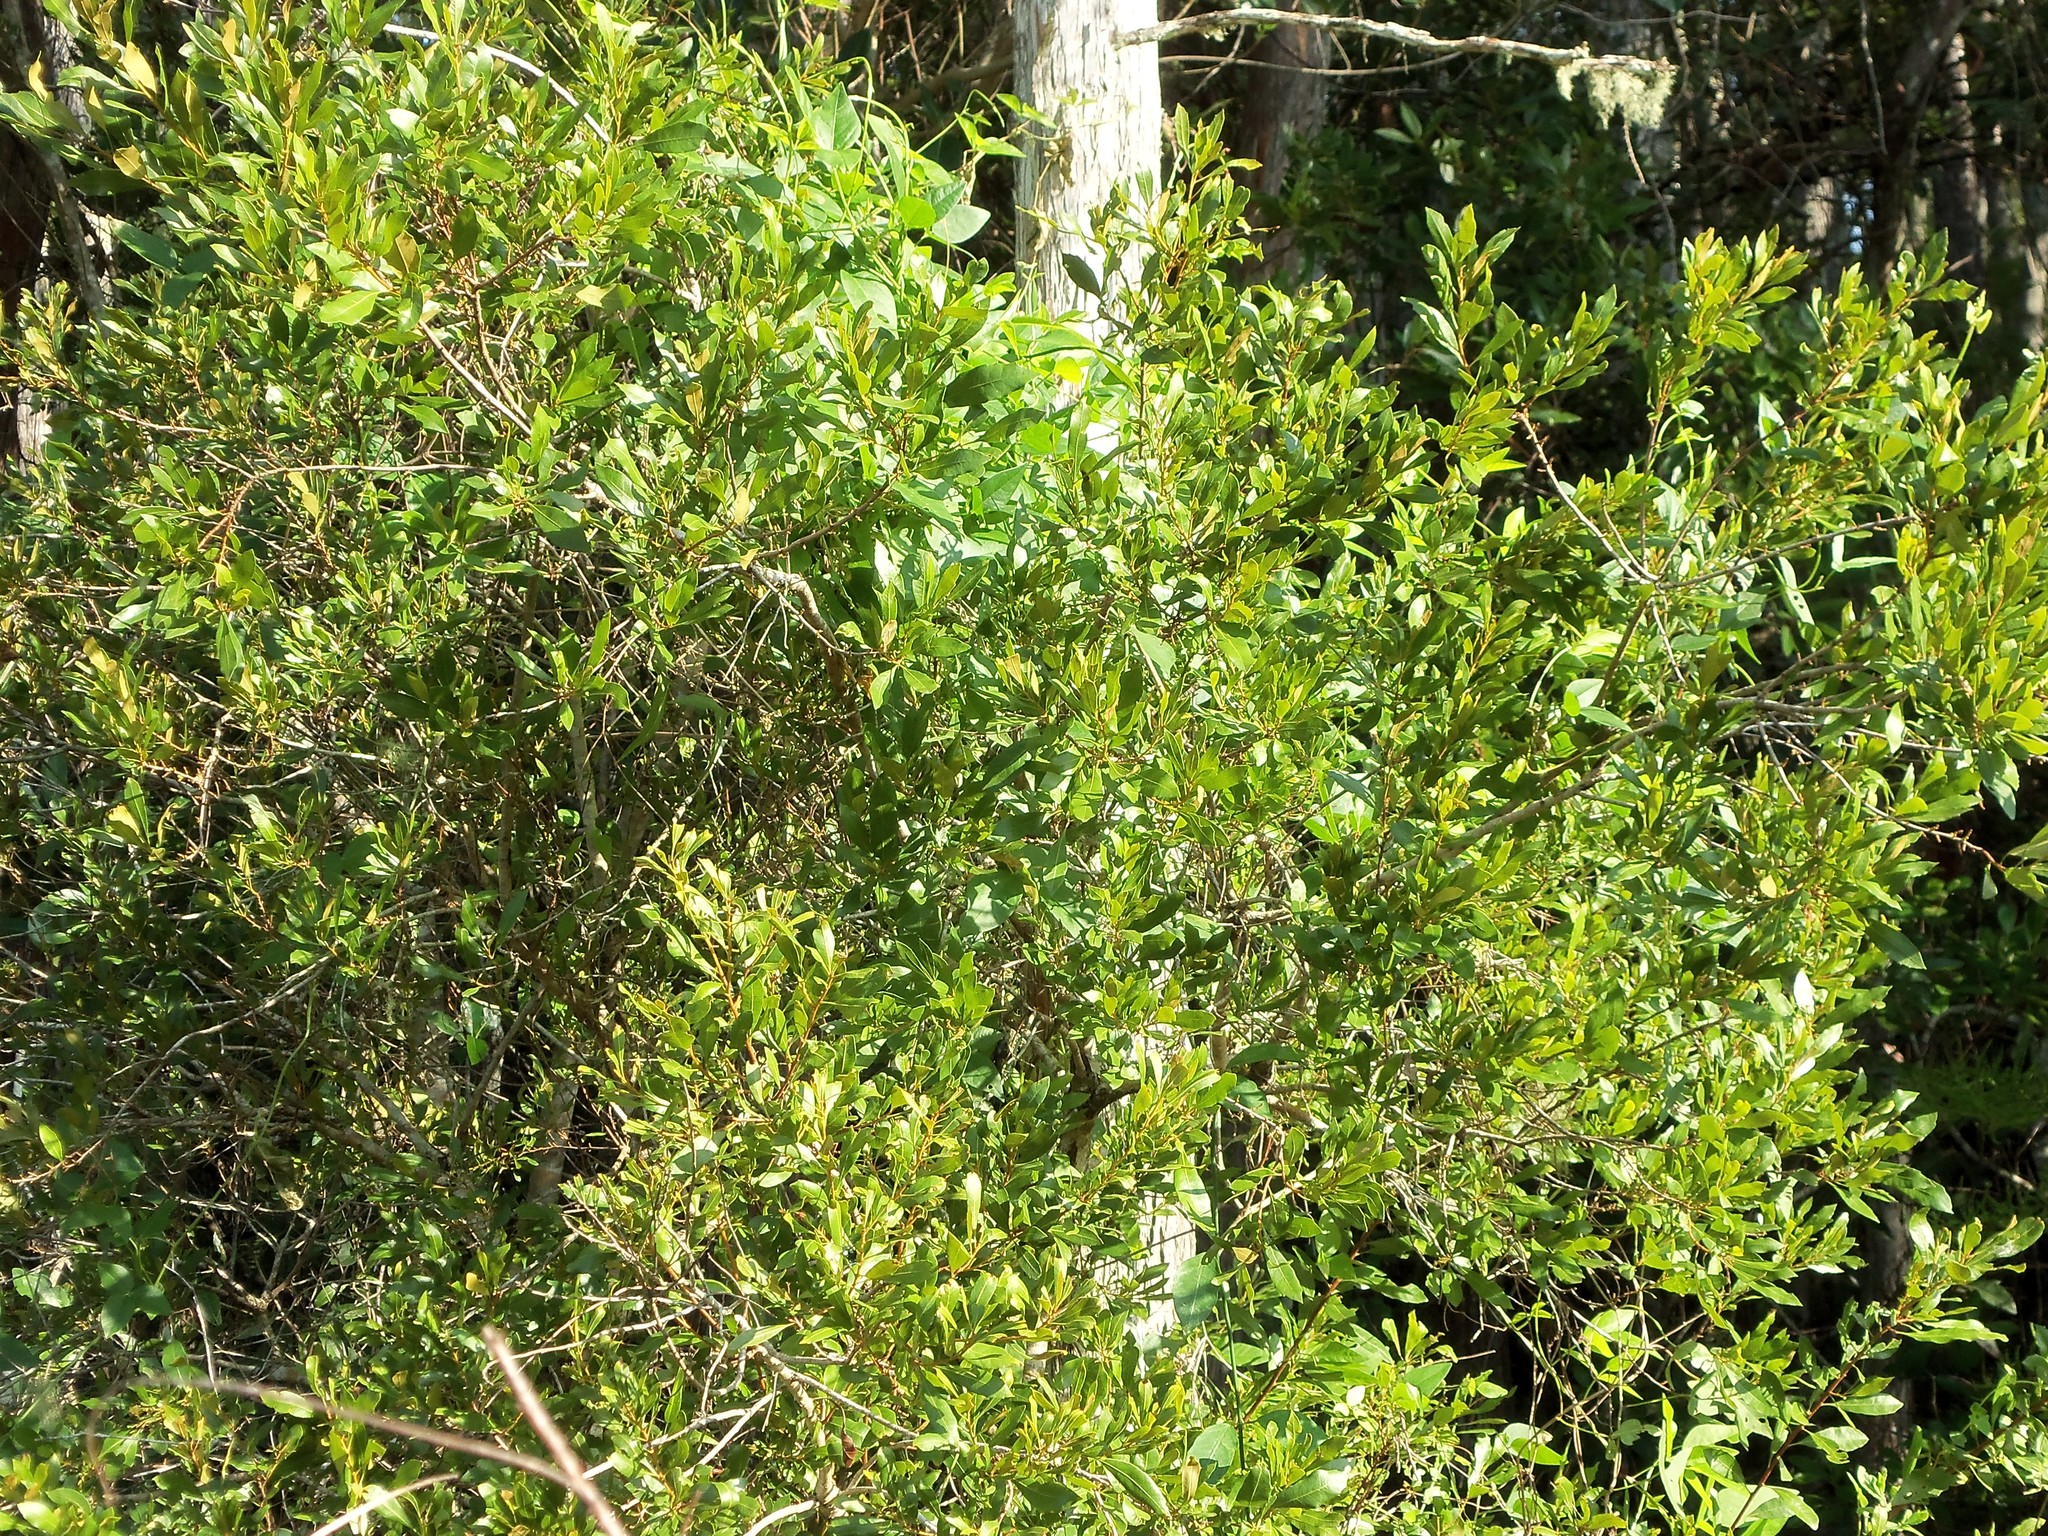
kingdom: Plantae
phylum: Tracheophyta
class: Magnoliopsida
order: Fagales
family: Myricaceae
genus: Morella
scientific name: Morella cerifera
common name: Wax myrtle
